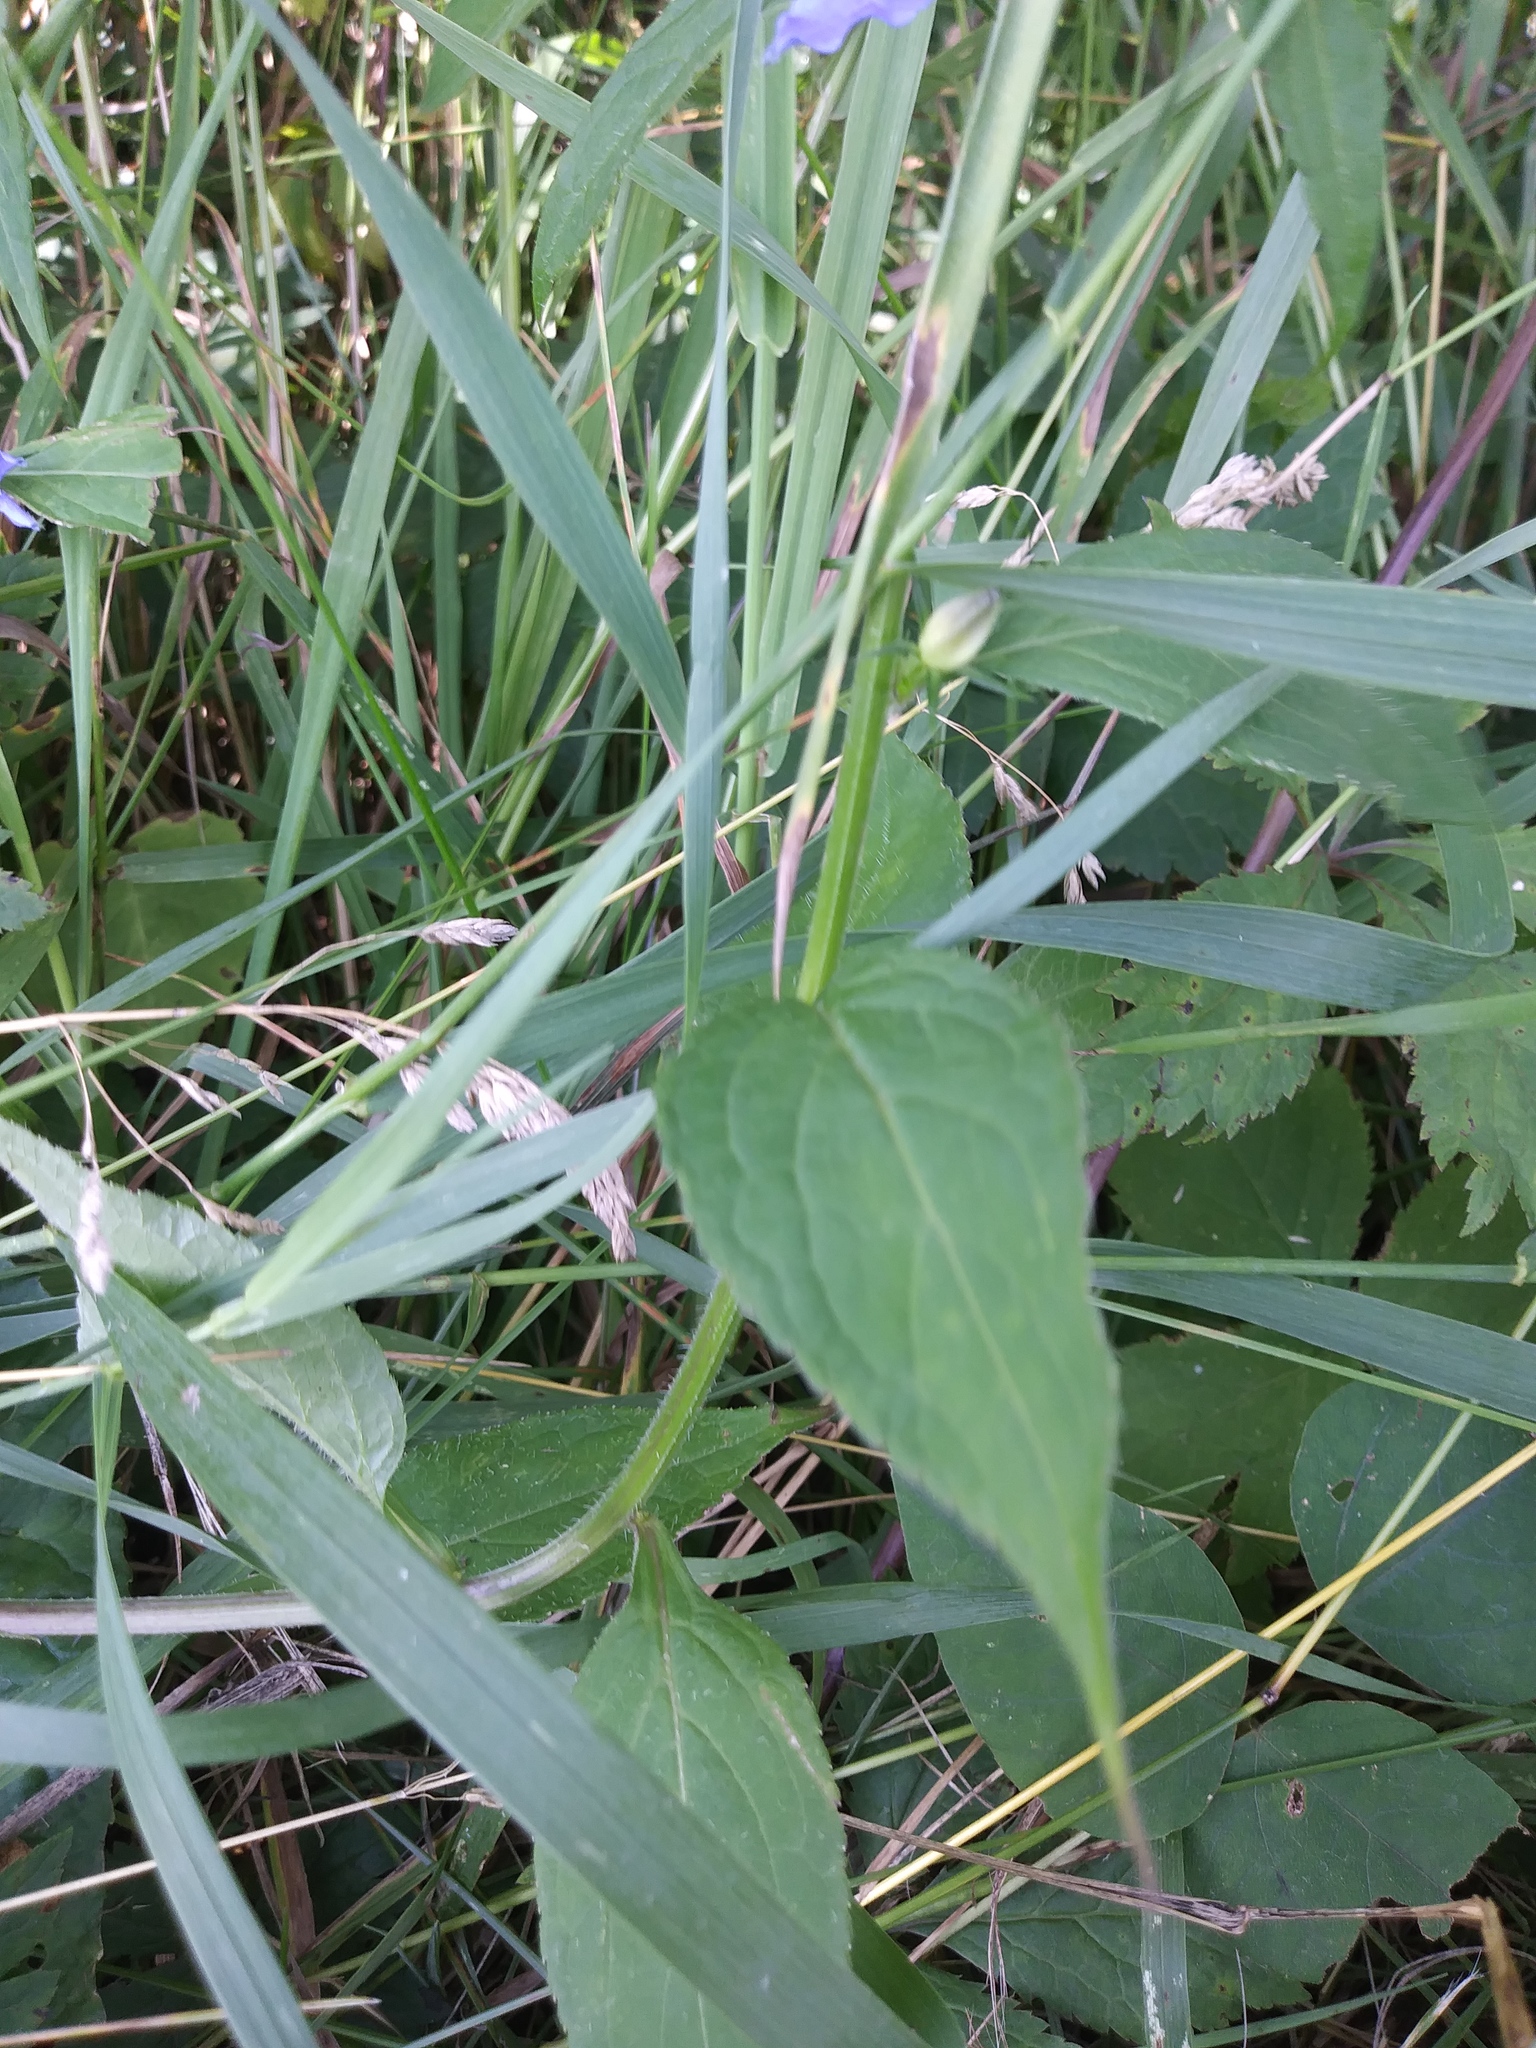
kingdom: Plantae
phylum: Tracheophyta
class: Magnoliopsida
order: Asterales
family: Campanulaceae
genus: Campanulastrum
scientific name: Campanulastrum americanum
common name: American bellflower
